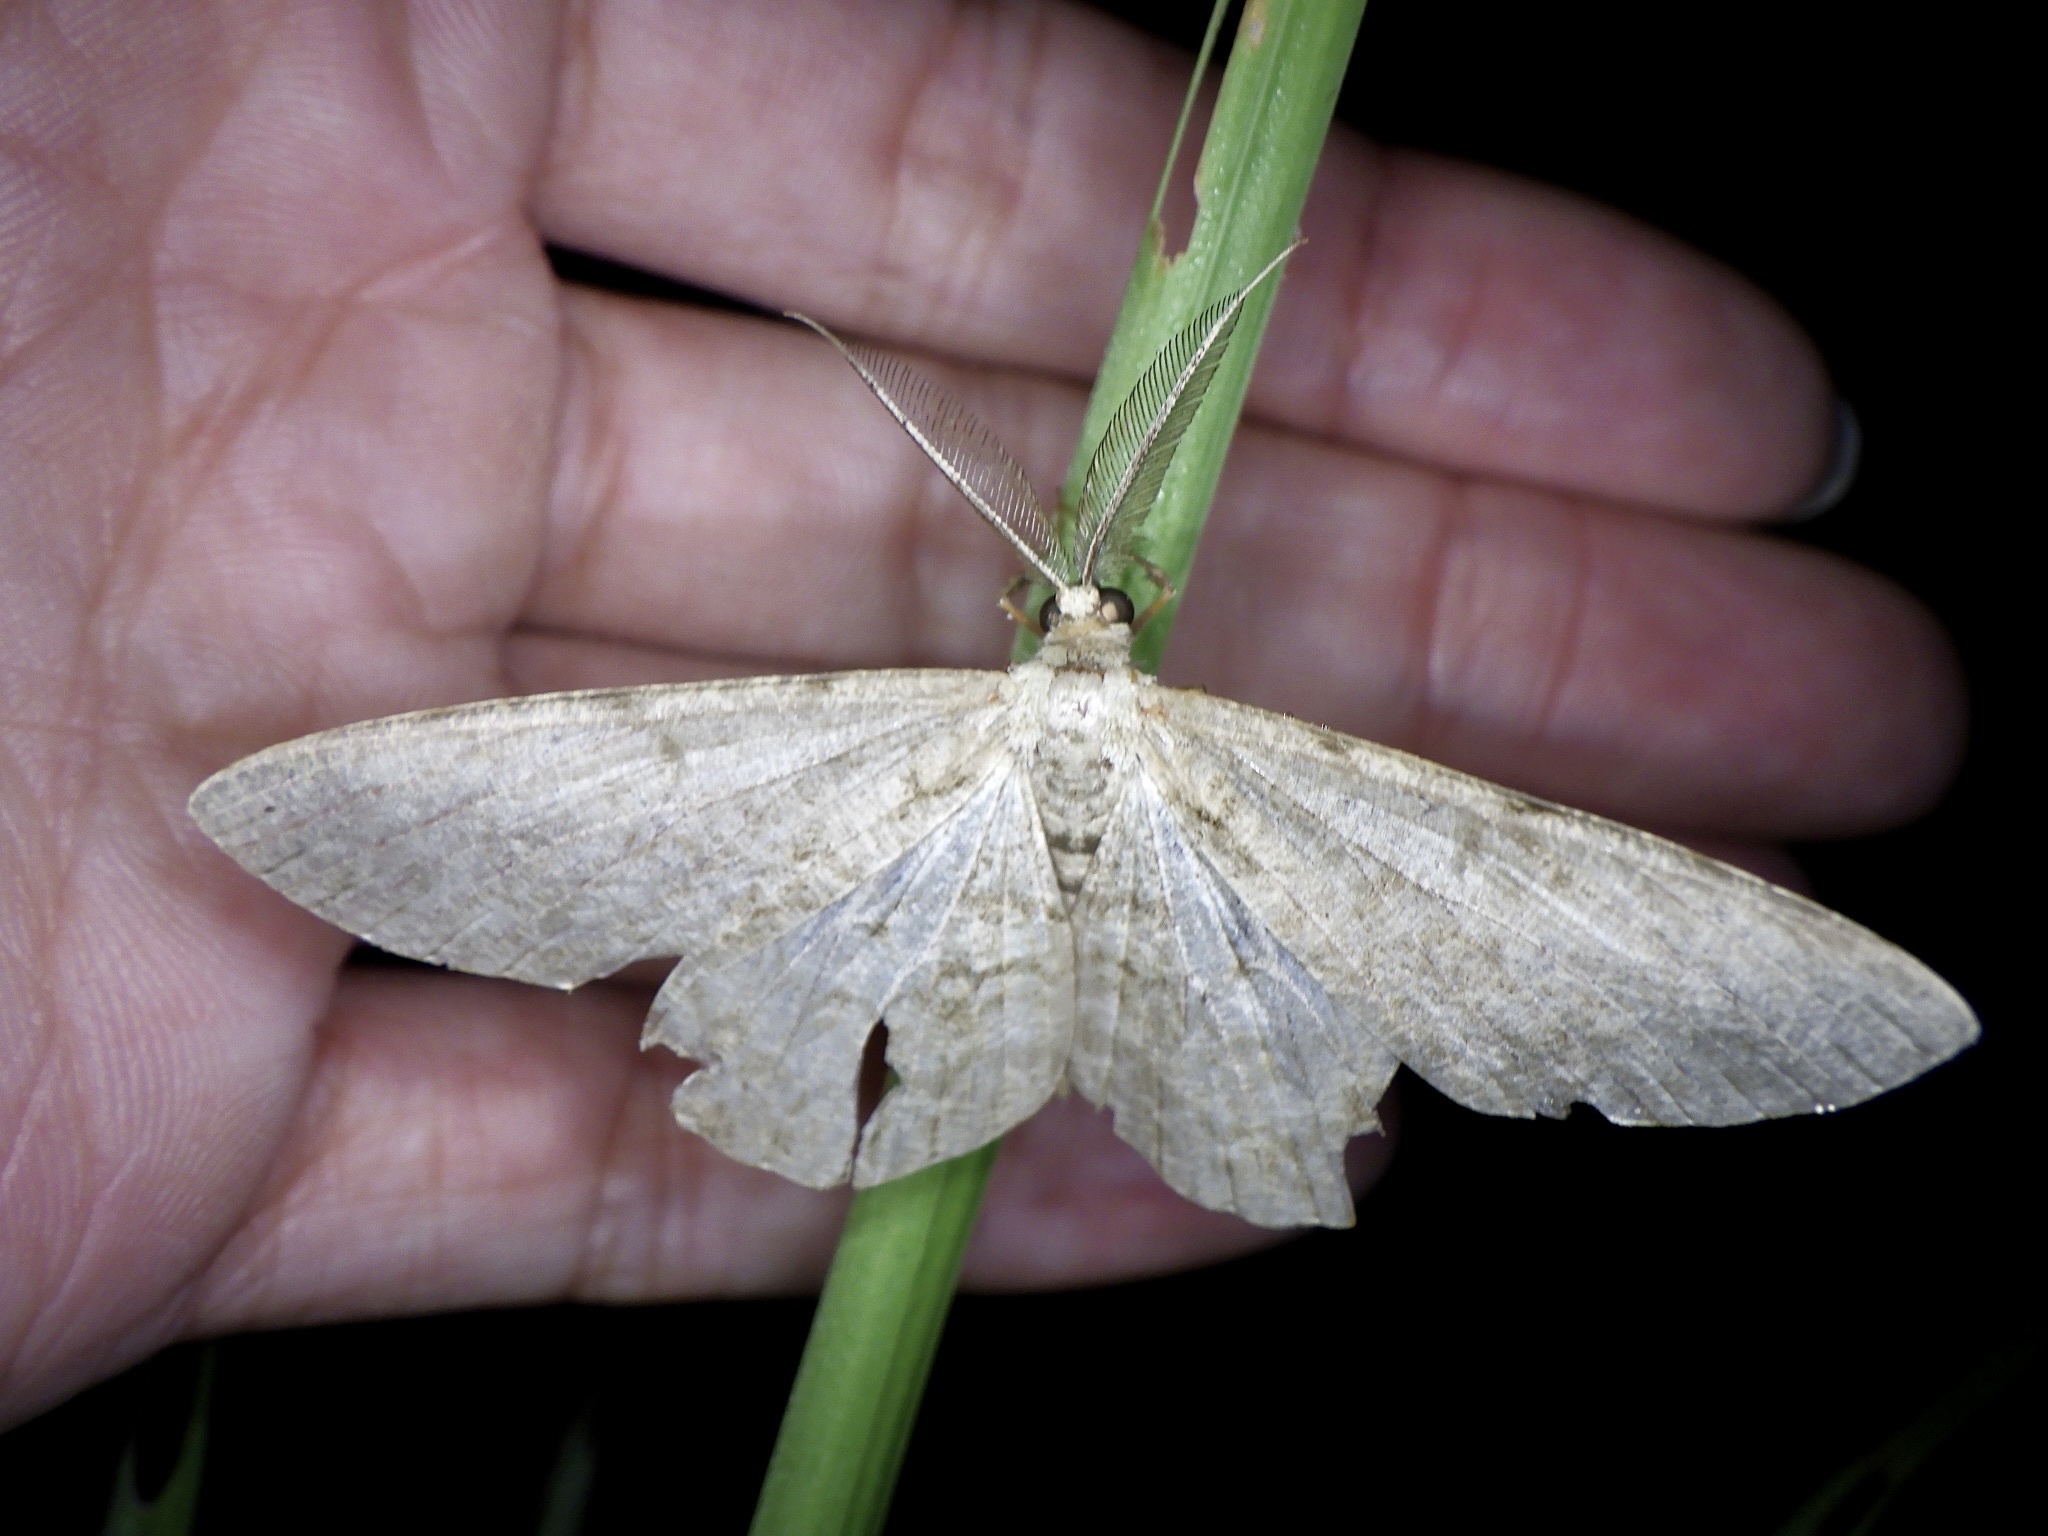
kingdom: Animalia
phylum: Arthropoda
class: Insecta
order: Lepidoptera
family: Geometridae
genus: Hypomecis
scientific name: Hypomecis punctinalis
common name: Pale oak beauty
